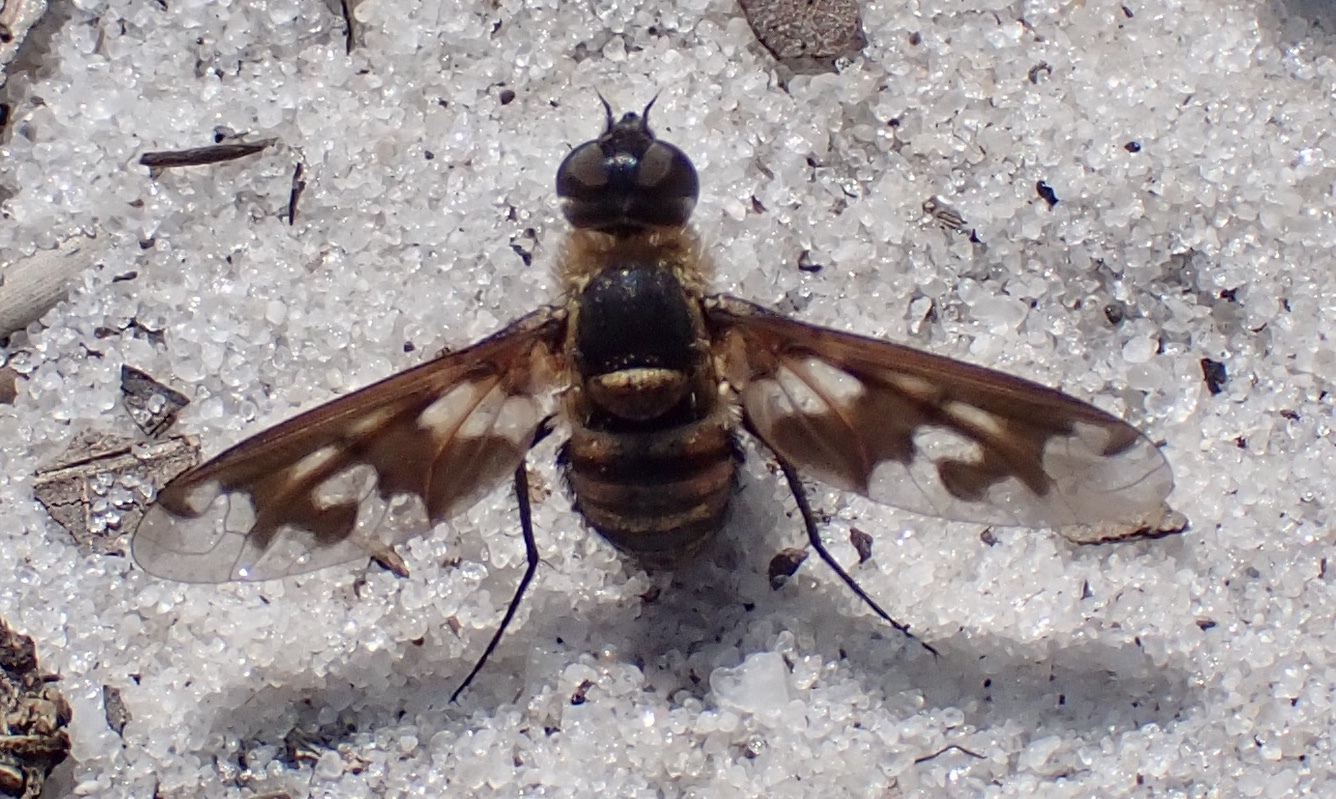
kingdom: Animalia
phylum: Arthropoda
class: Insecta
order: Diptera
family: Bombyliidae
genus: Exoprosopa
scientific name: Exoprosopa fascipennis
